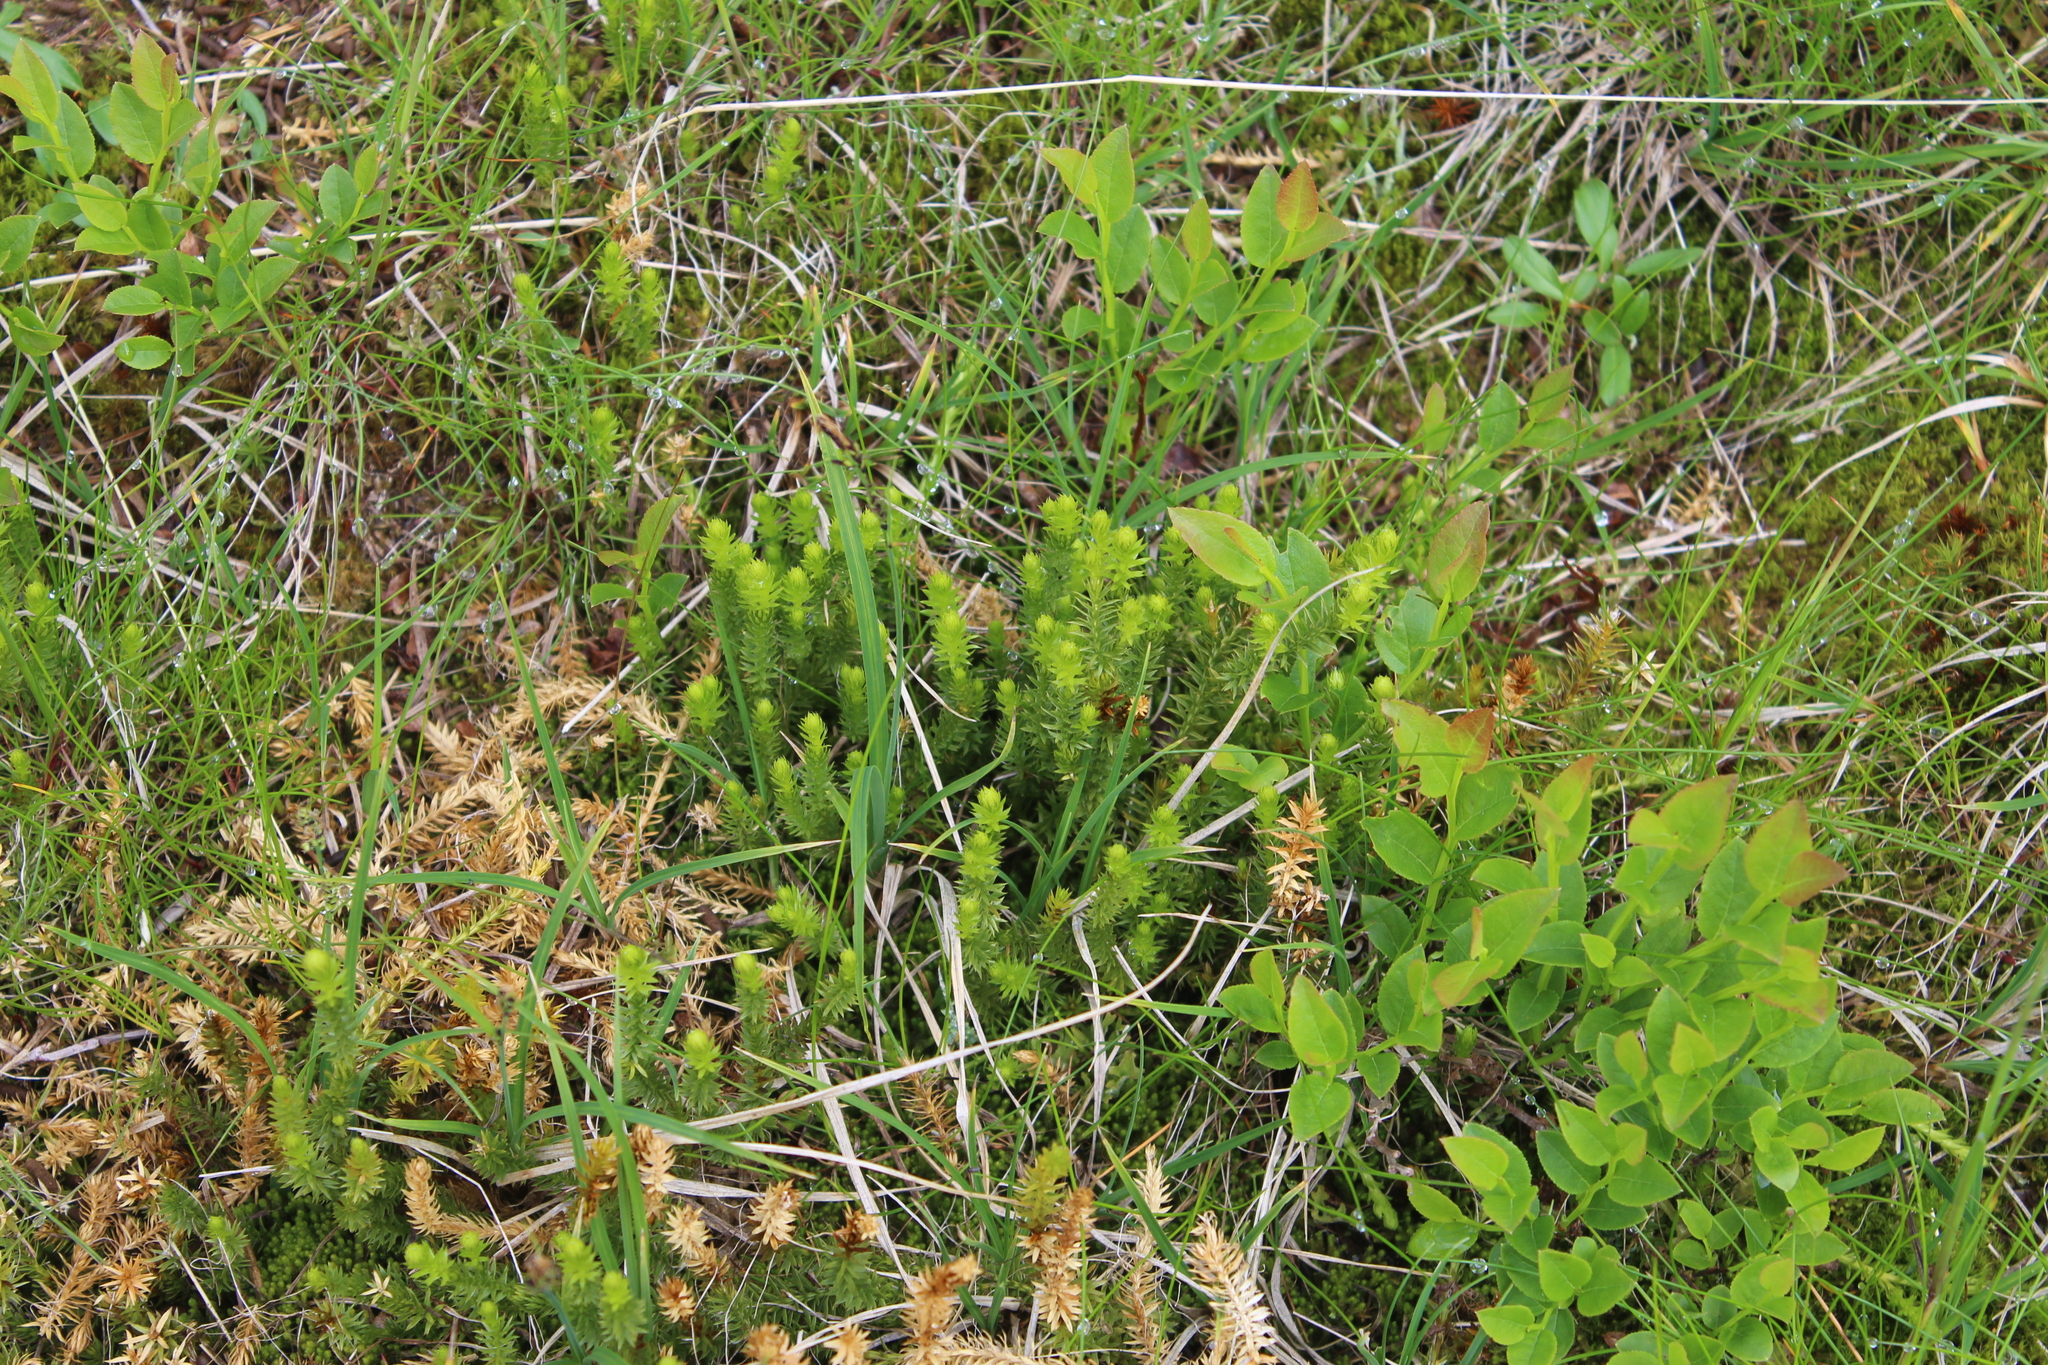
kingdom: Plantae
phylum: Tracheophyta
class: Lycopodiopsida
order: Lycopodiales
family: Lycopodiaceae
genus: Spinulum
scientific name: Spinulum annotinum
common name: Interrupted club-moss
